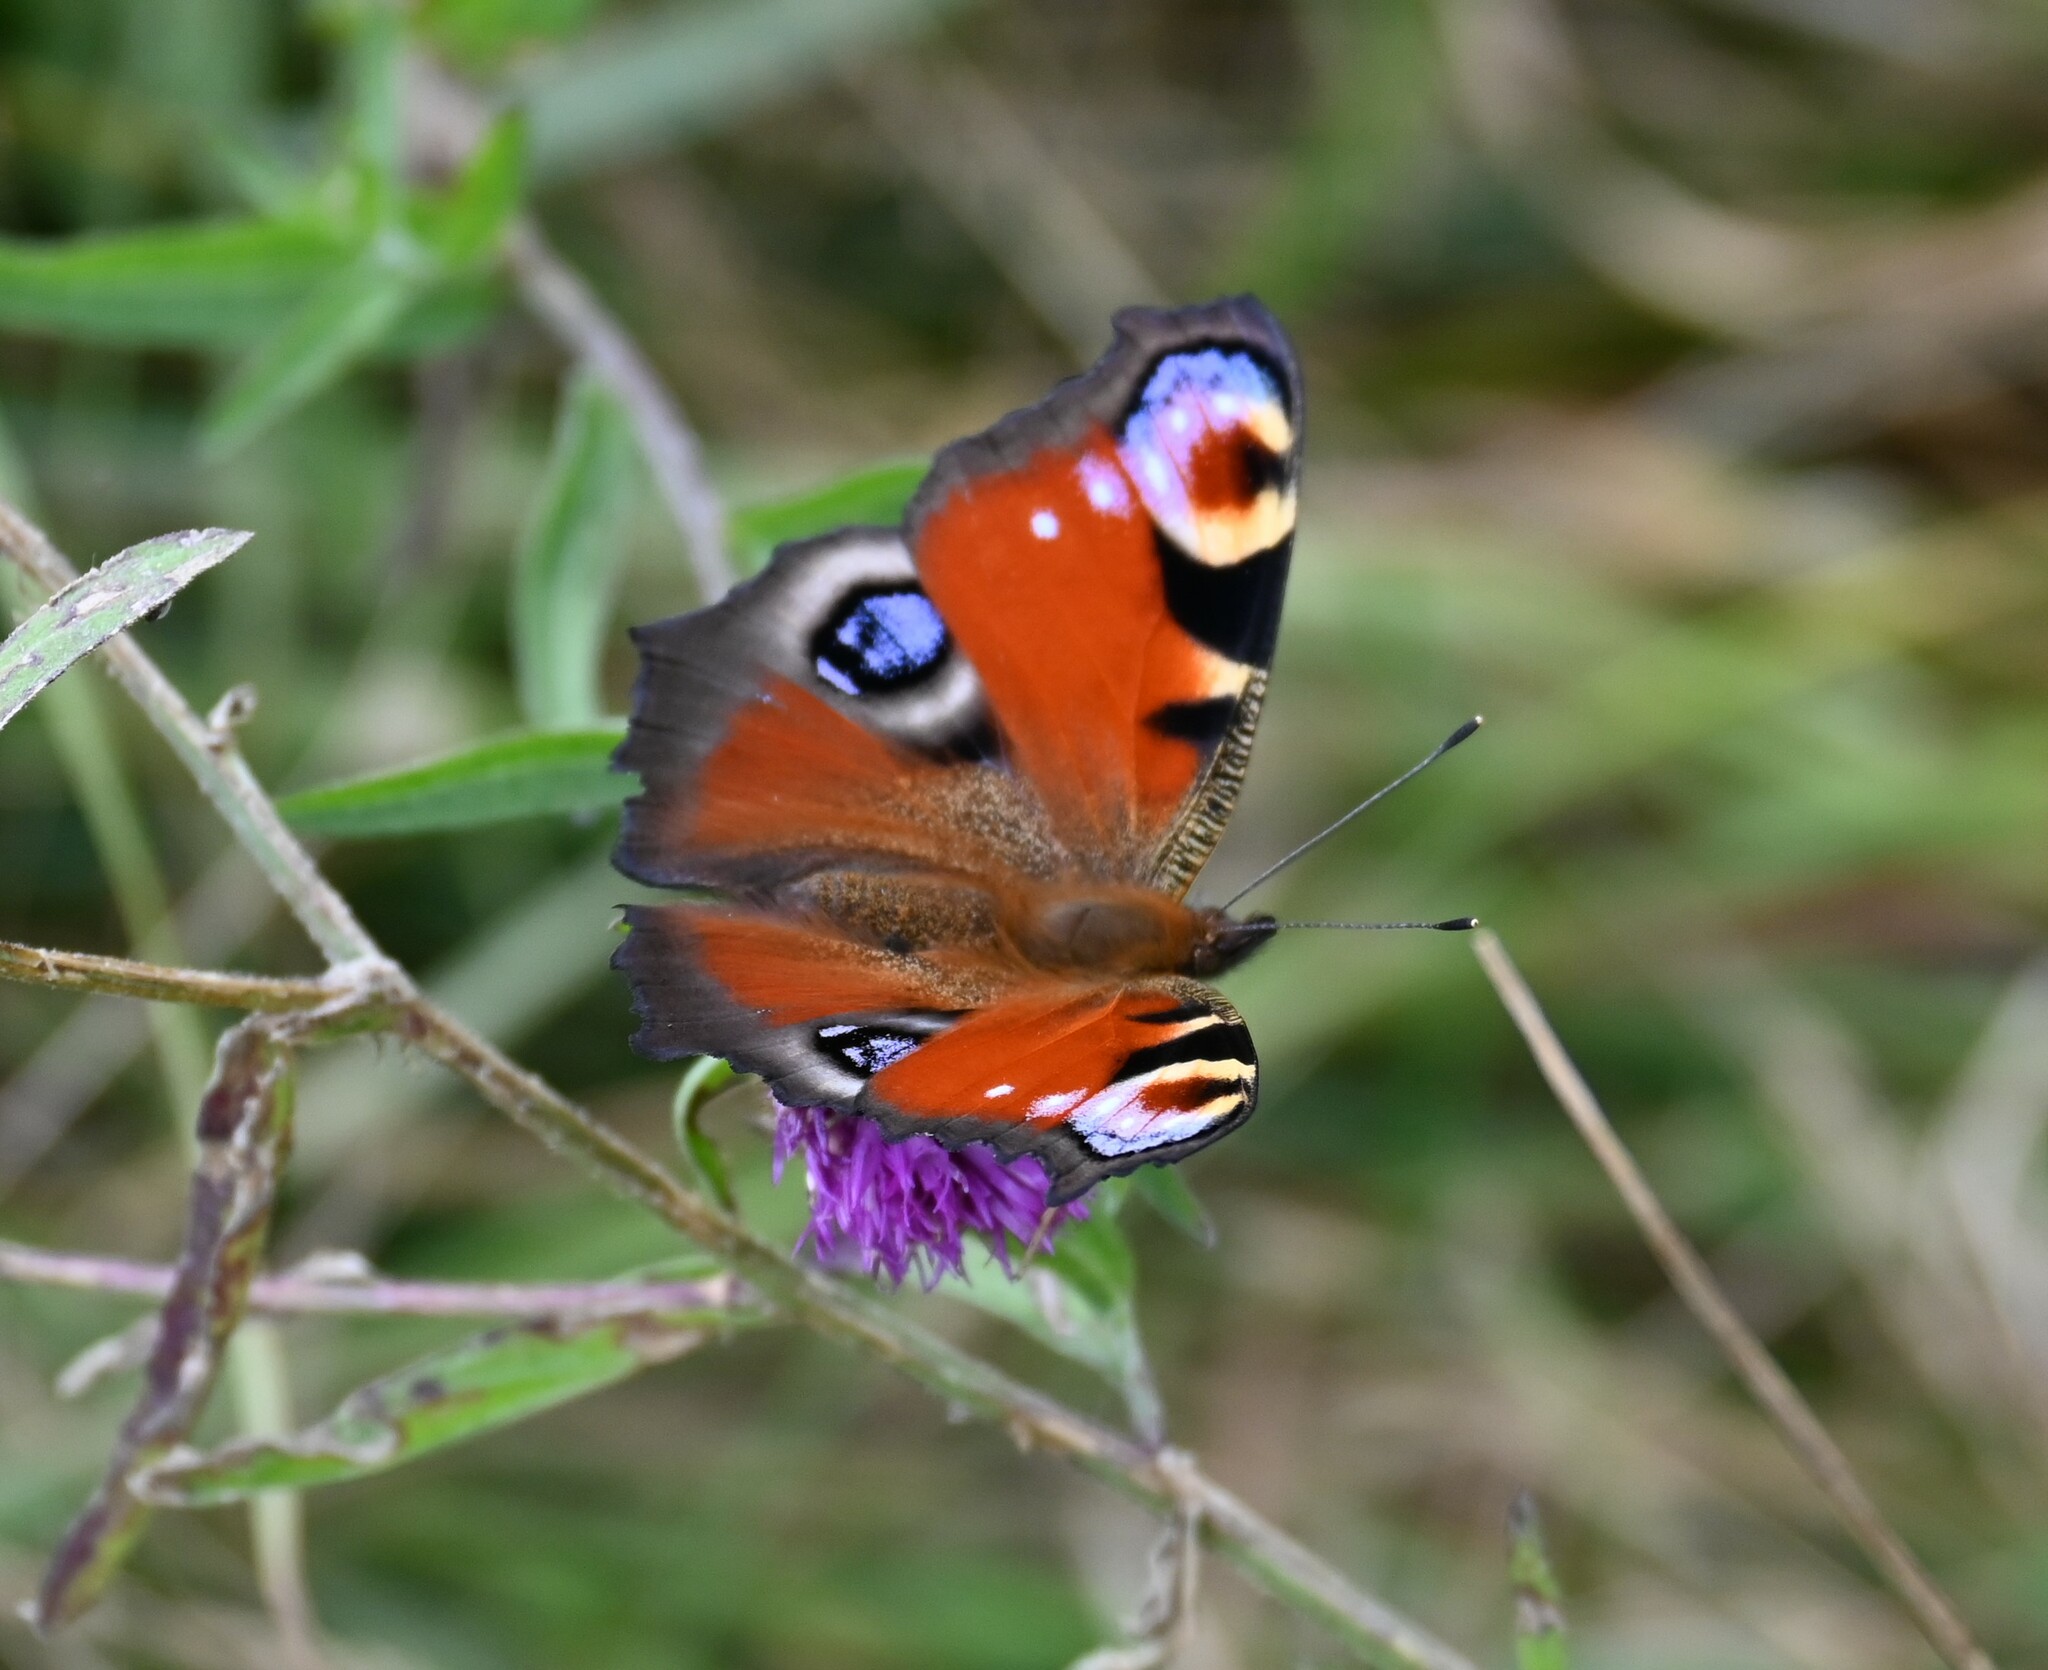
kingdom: Animalia
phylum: Arthropoda
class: Insecta
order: Lepidoptera
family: Nymphalidae
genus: Aglais
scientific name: Aglais io
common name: Peacock
